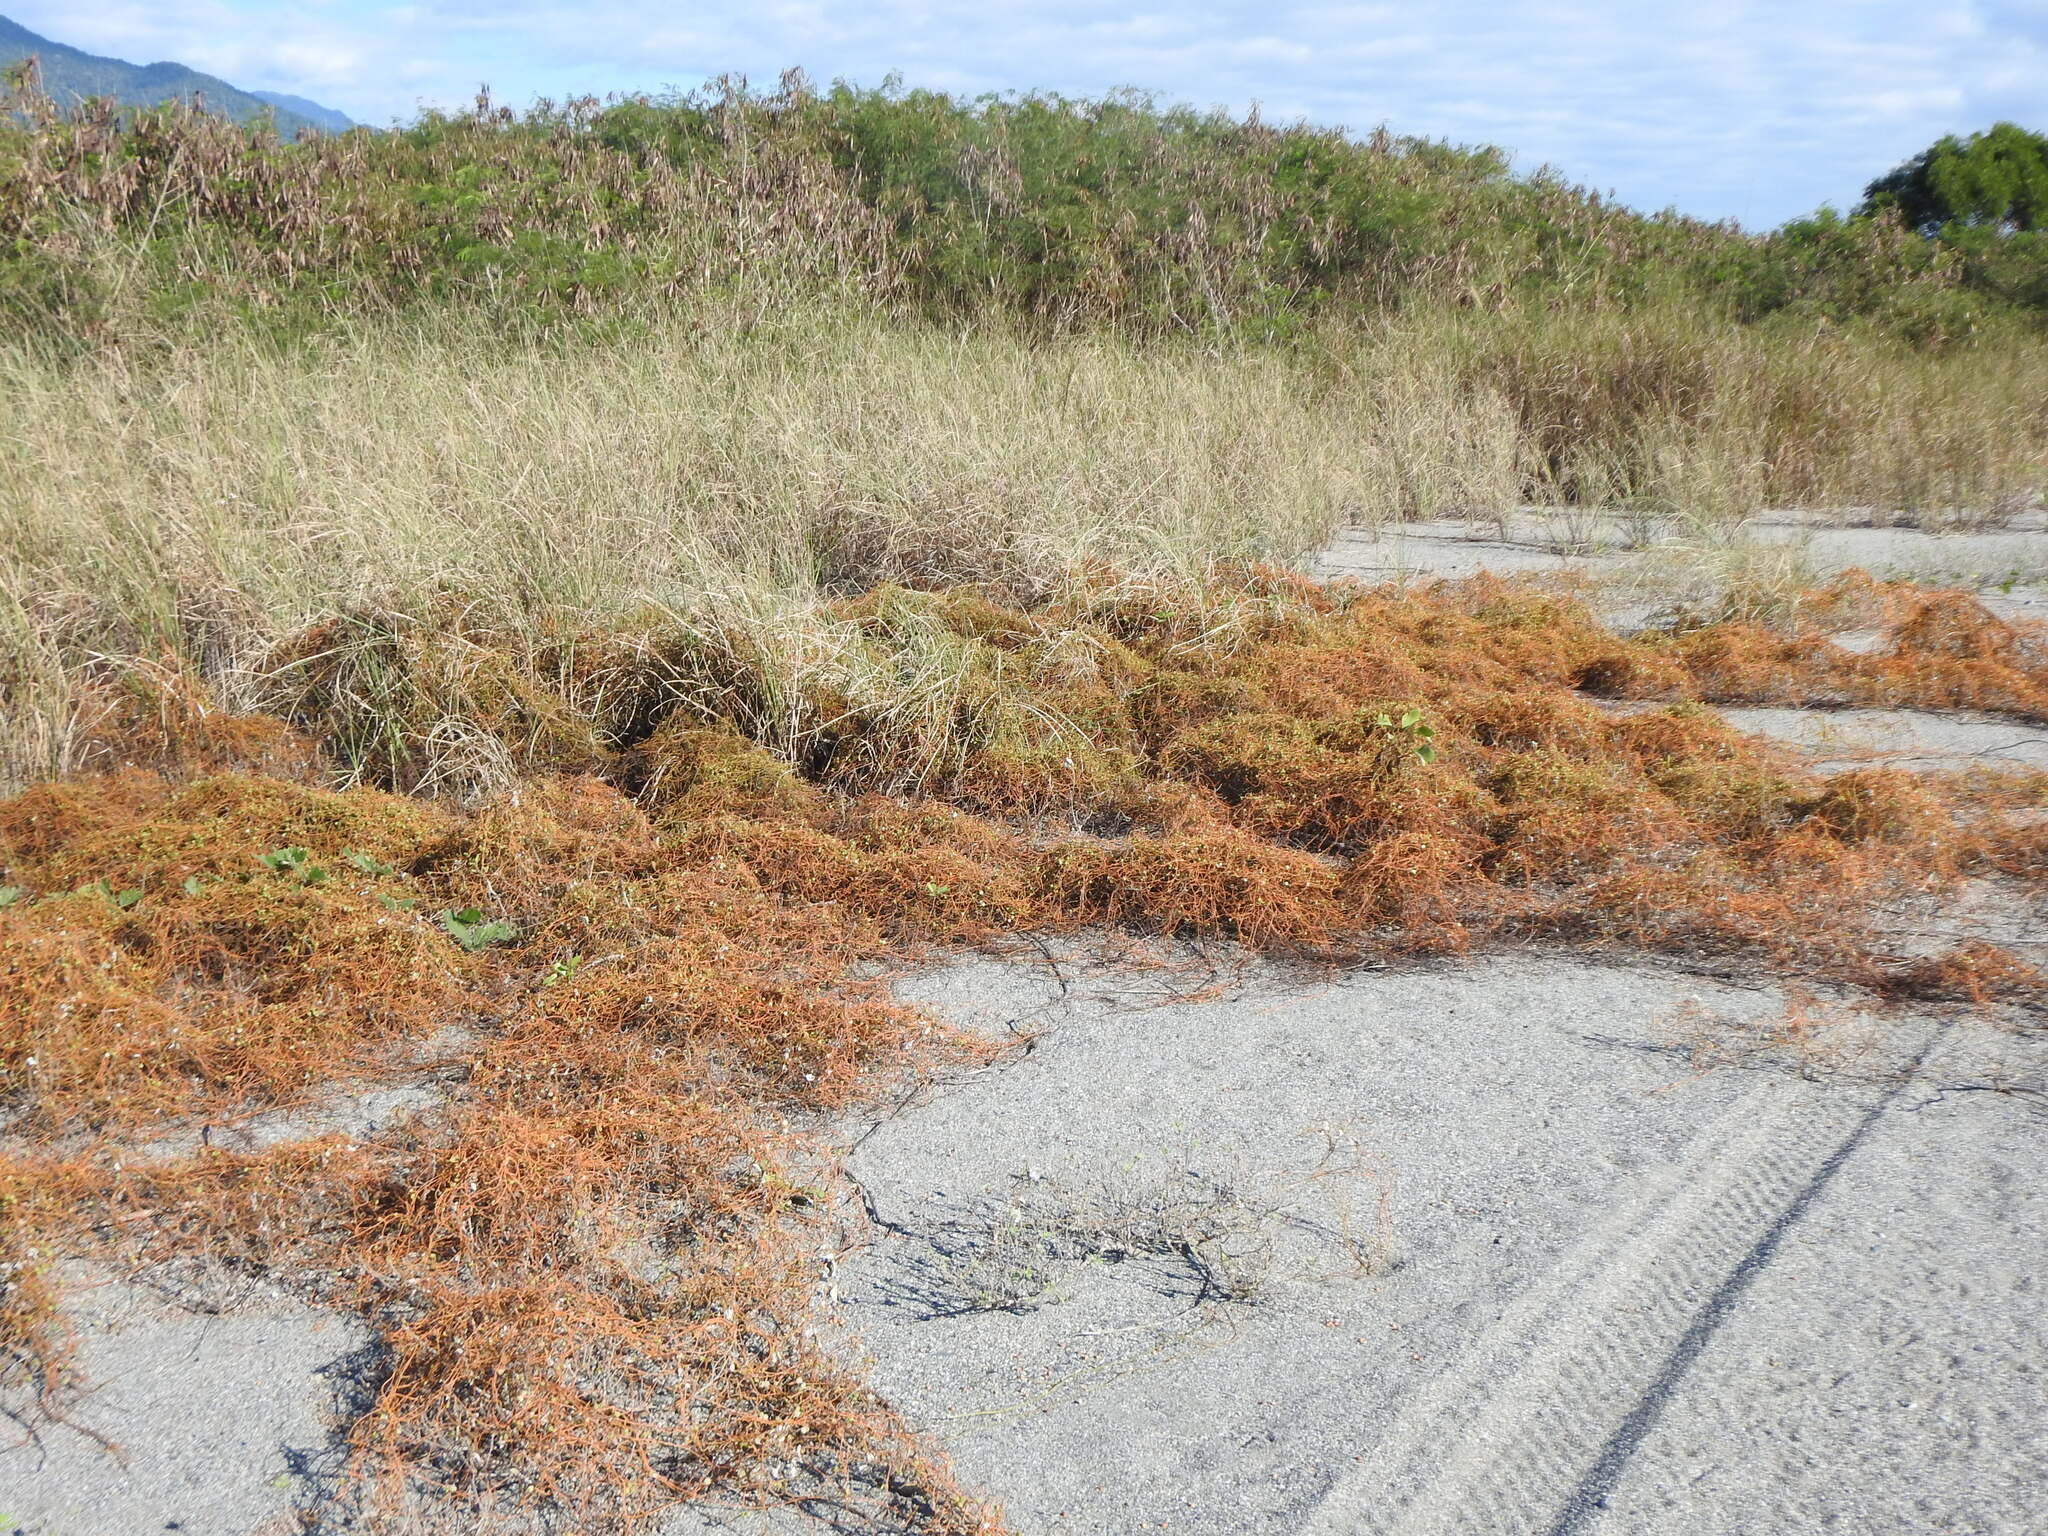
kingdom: Plantae
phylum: Tracheophyta
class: Magnoliopsida
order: Laurales
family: Lauraceae
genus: Cassytha
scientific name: Cassytha filiformis
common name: Dodder-laurel
